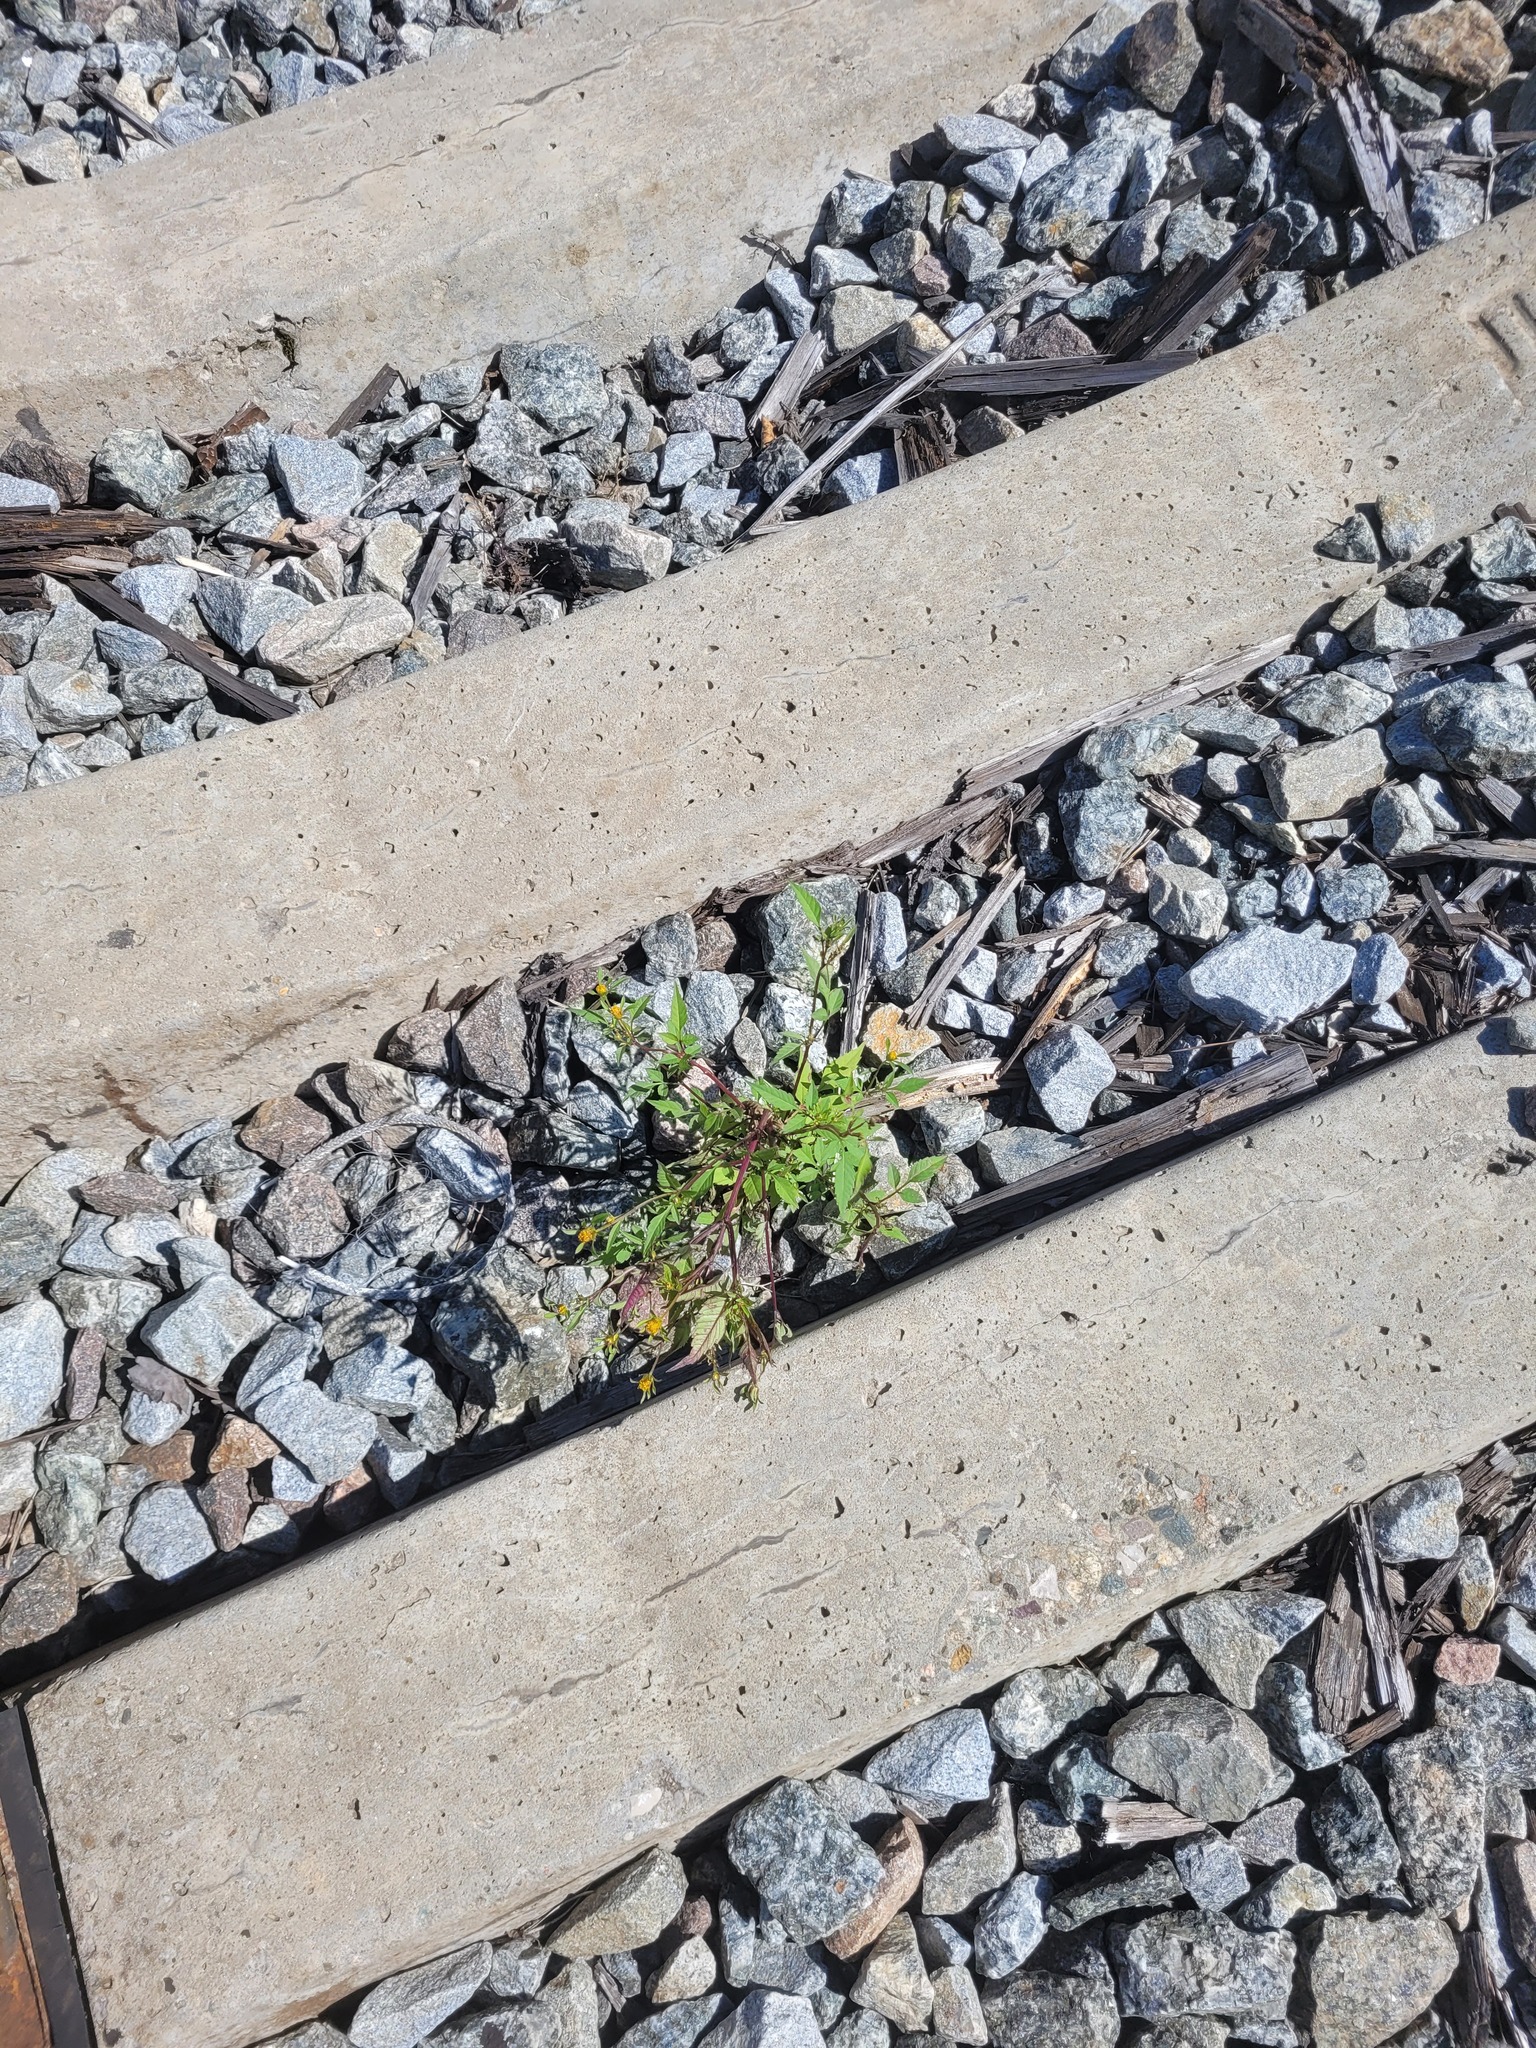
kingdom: Plantae
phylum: Tracheophyta
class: Magnoliopsida
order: Asterales
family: Asteraceae
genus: Bidens
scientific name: Bidens frondosa
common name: Beggarticks
